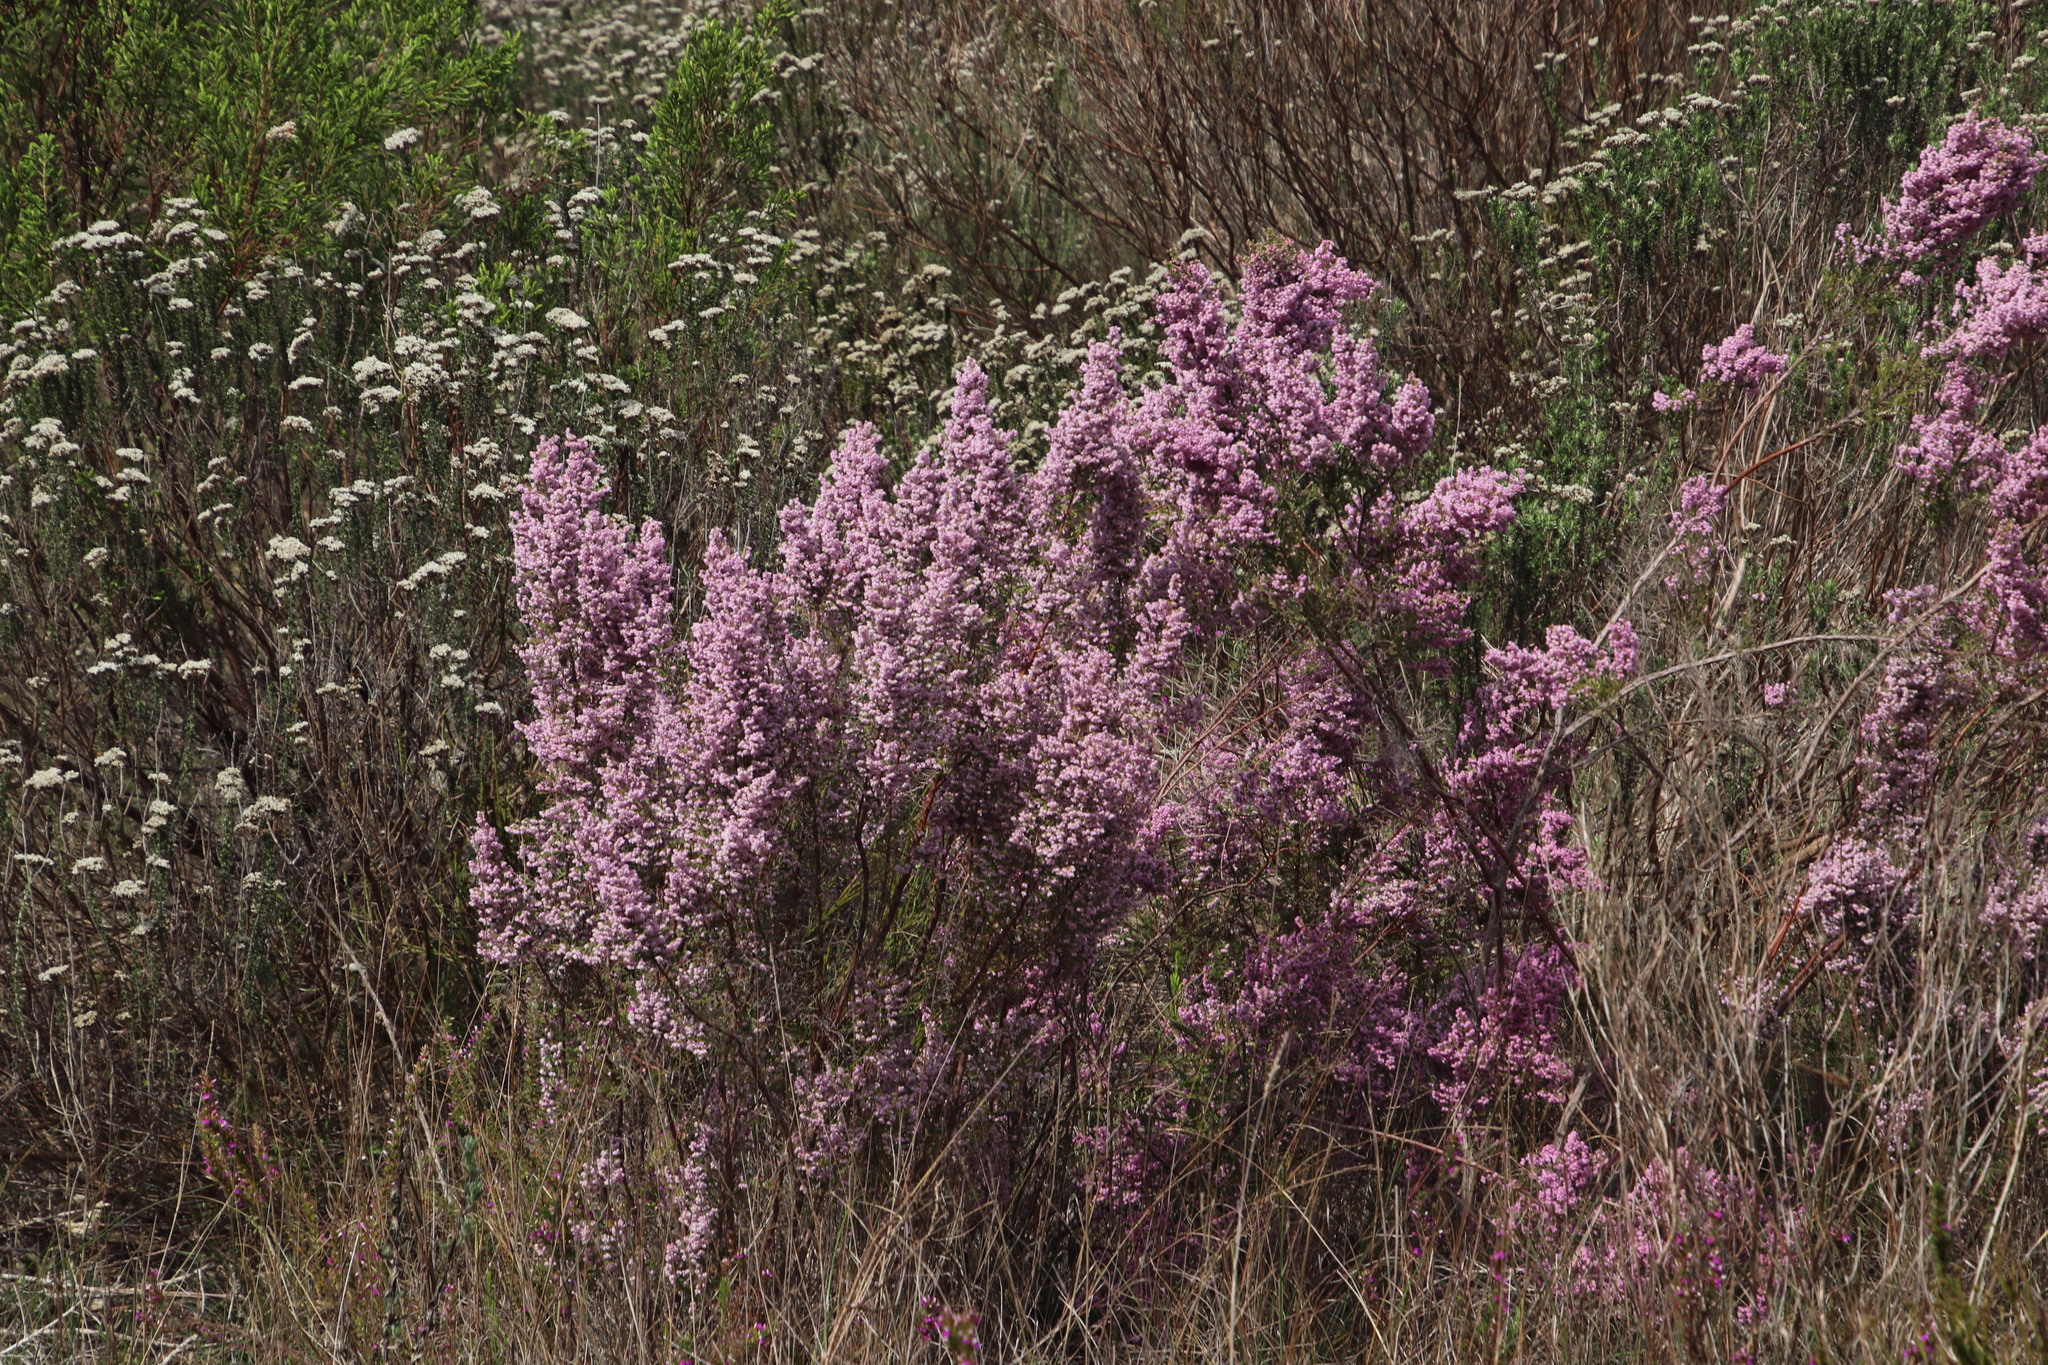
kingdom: Plantae
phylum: Tracheophyta
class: Magnoliopsida
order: Ericales
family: Ericaceae
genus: Erica
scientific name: Erica mauritanica
